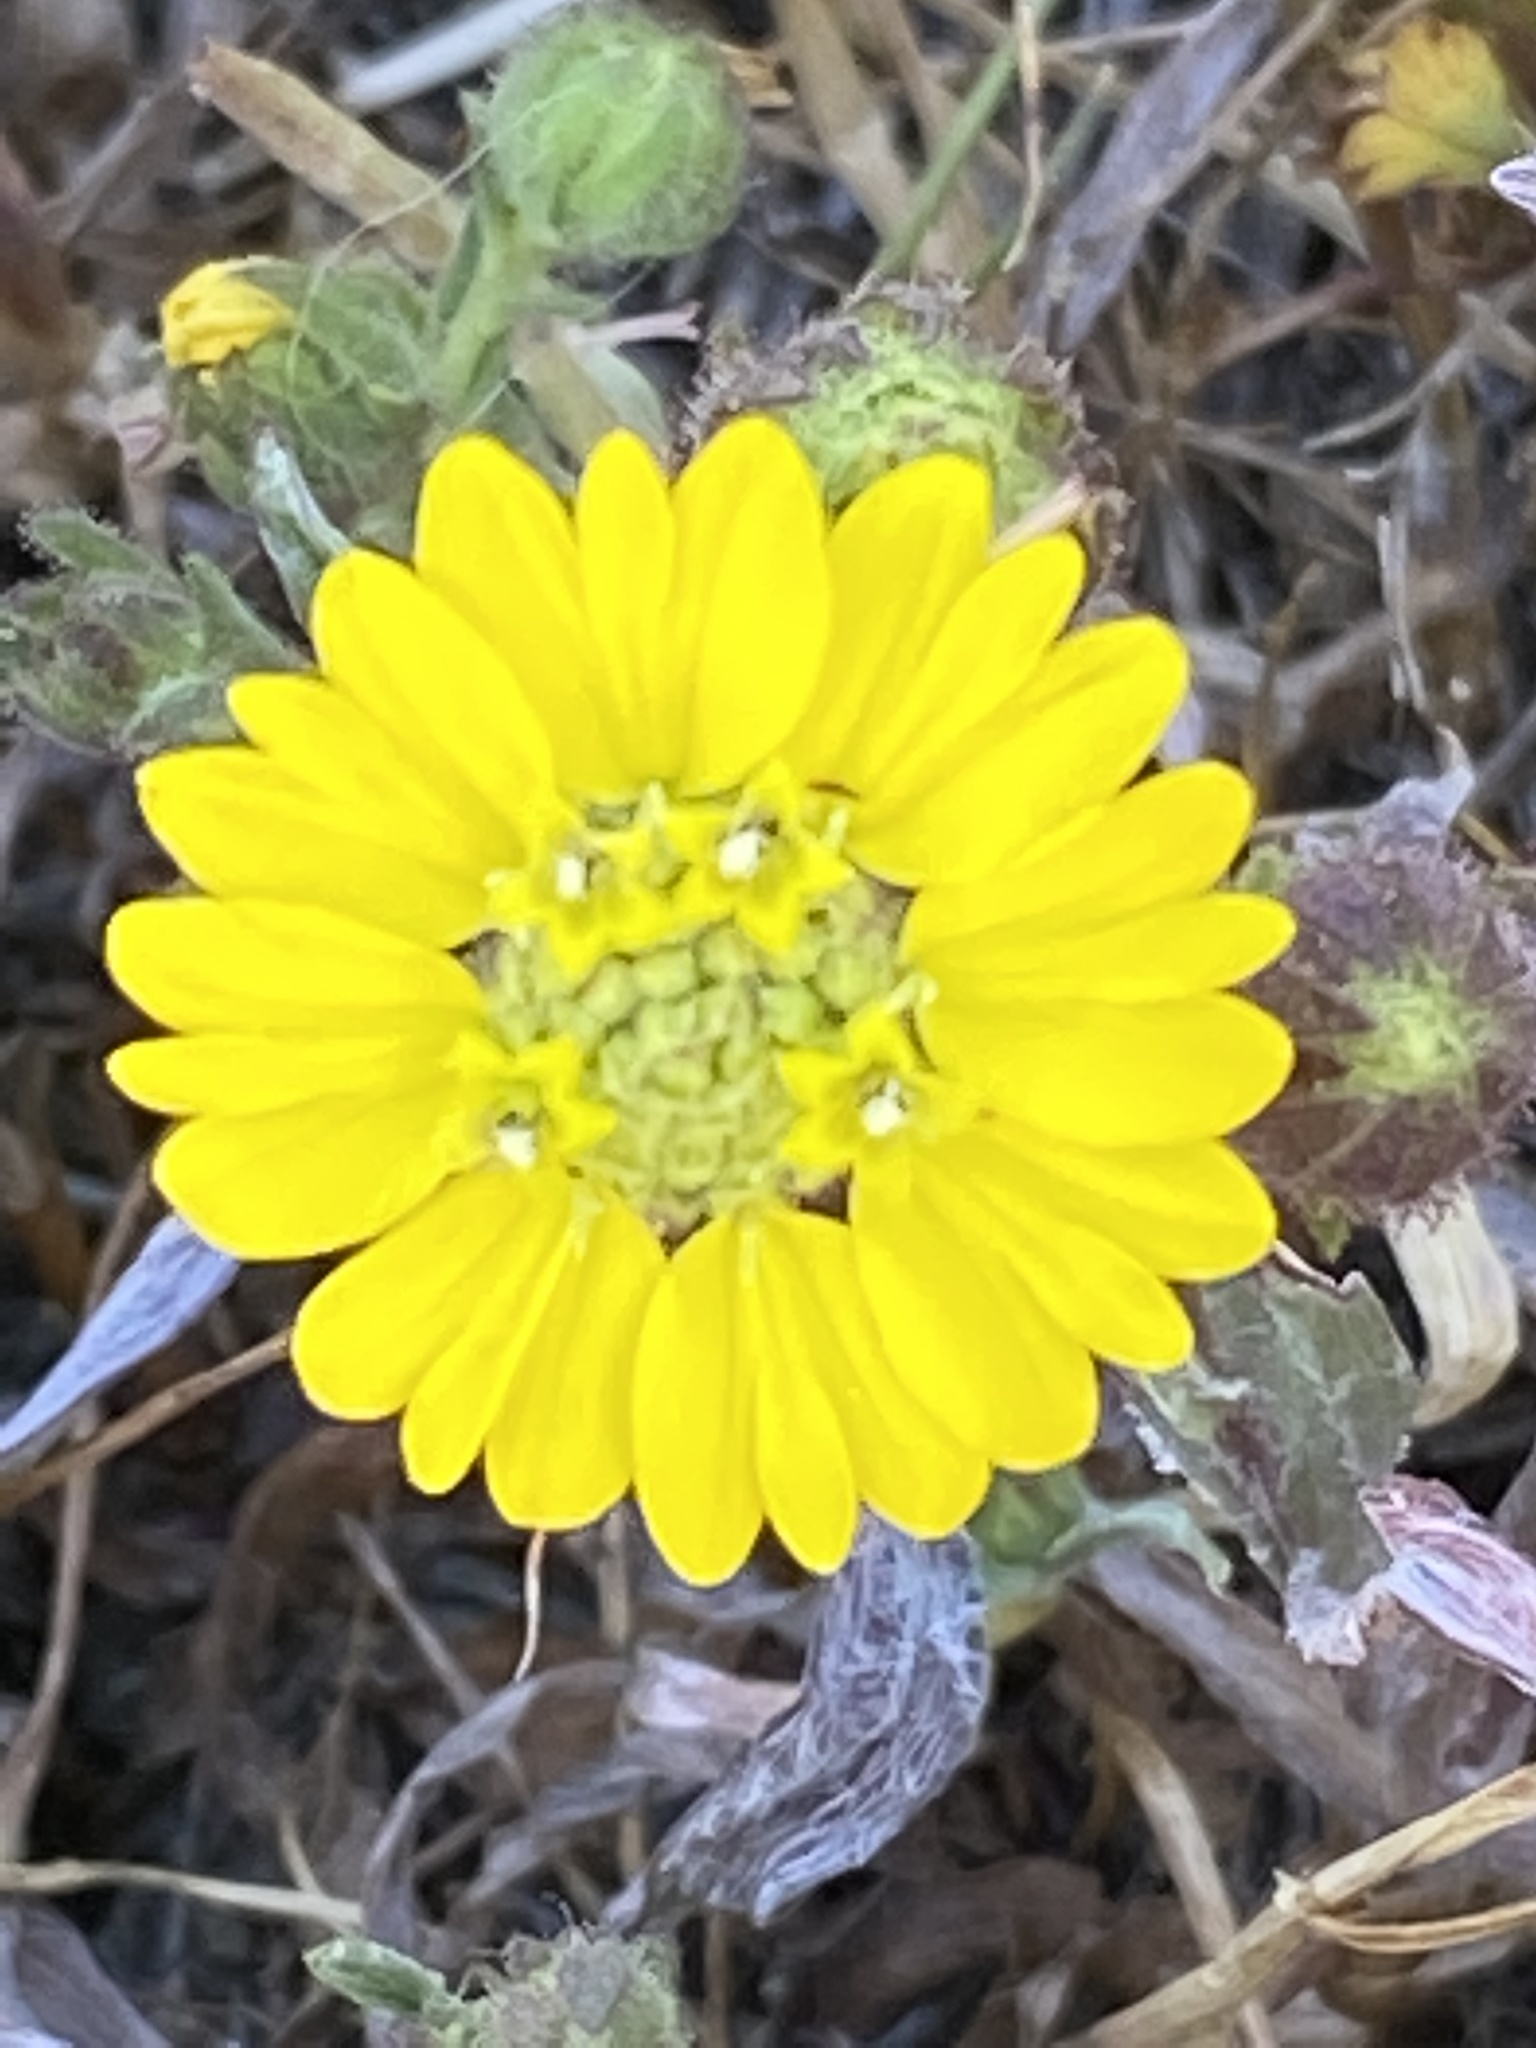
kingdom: Plantae
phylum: Tracheophyta
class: Magnoliopsida
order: Asterales
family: Asteraceae
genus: Hemizonia
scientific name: Hemizonia congesta
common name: Hayfield tarweed
